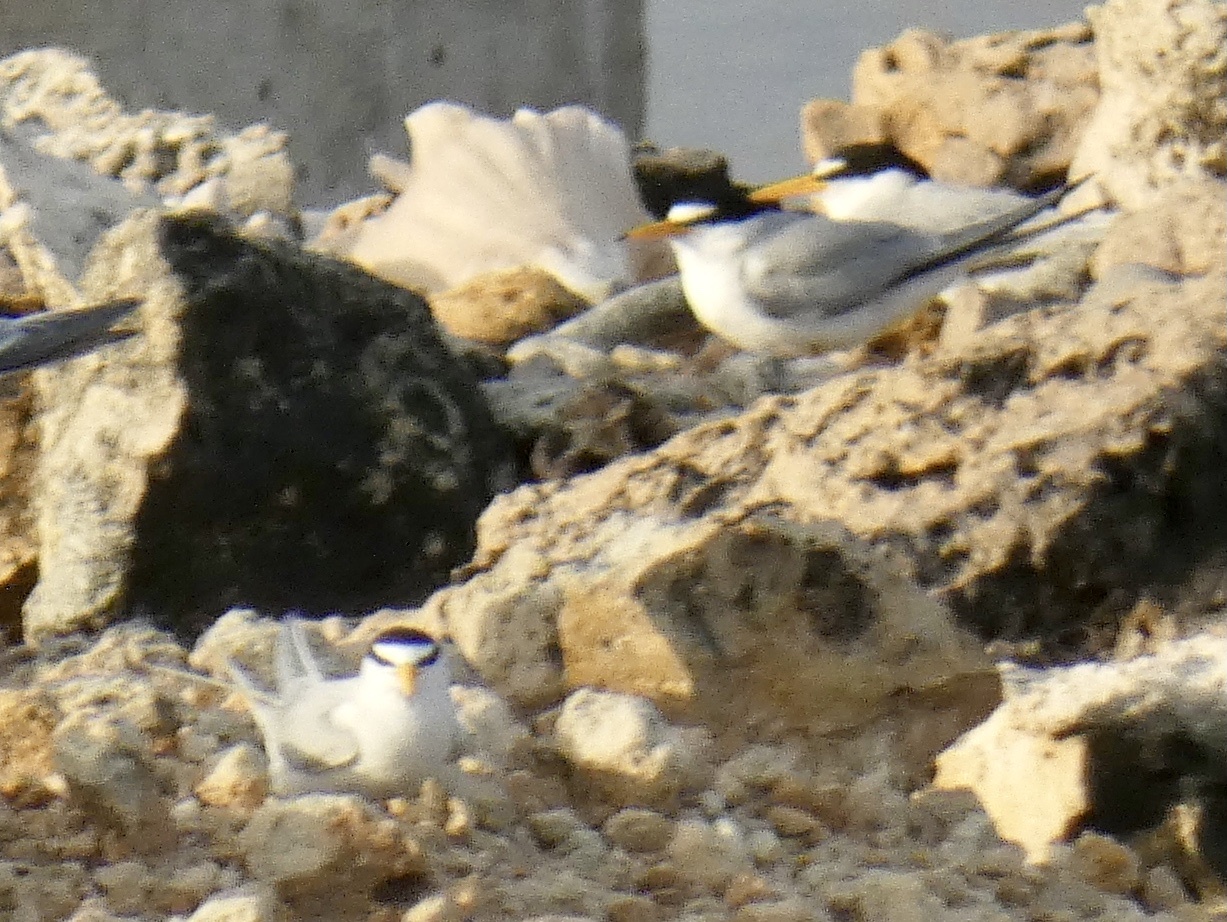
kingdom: Animalia
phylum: Chordata
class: Aves
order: Charadriiformes
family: Laridae
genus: Sternula
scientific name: Sternula antillarum
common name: Least tern
